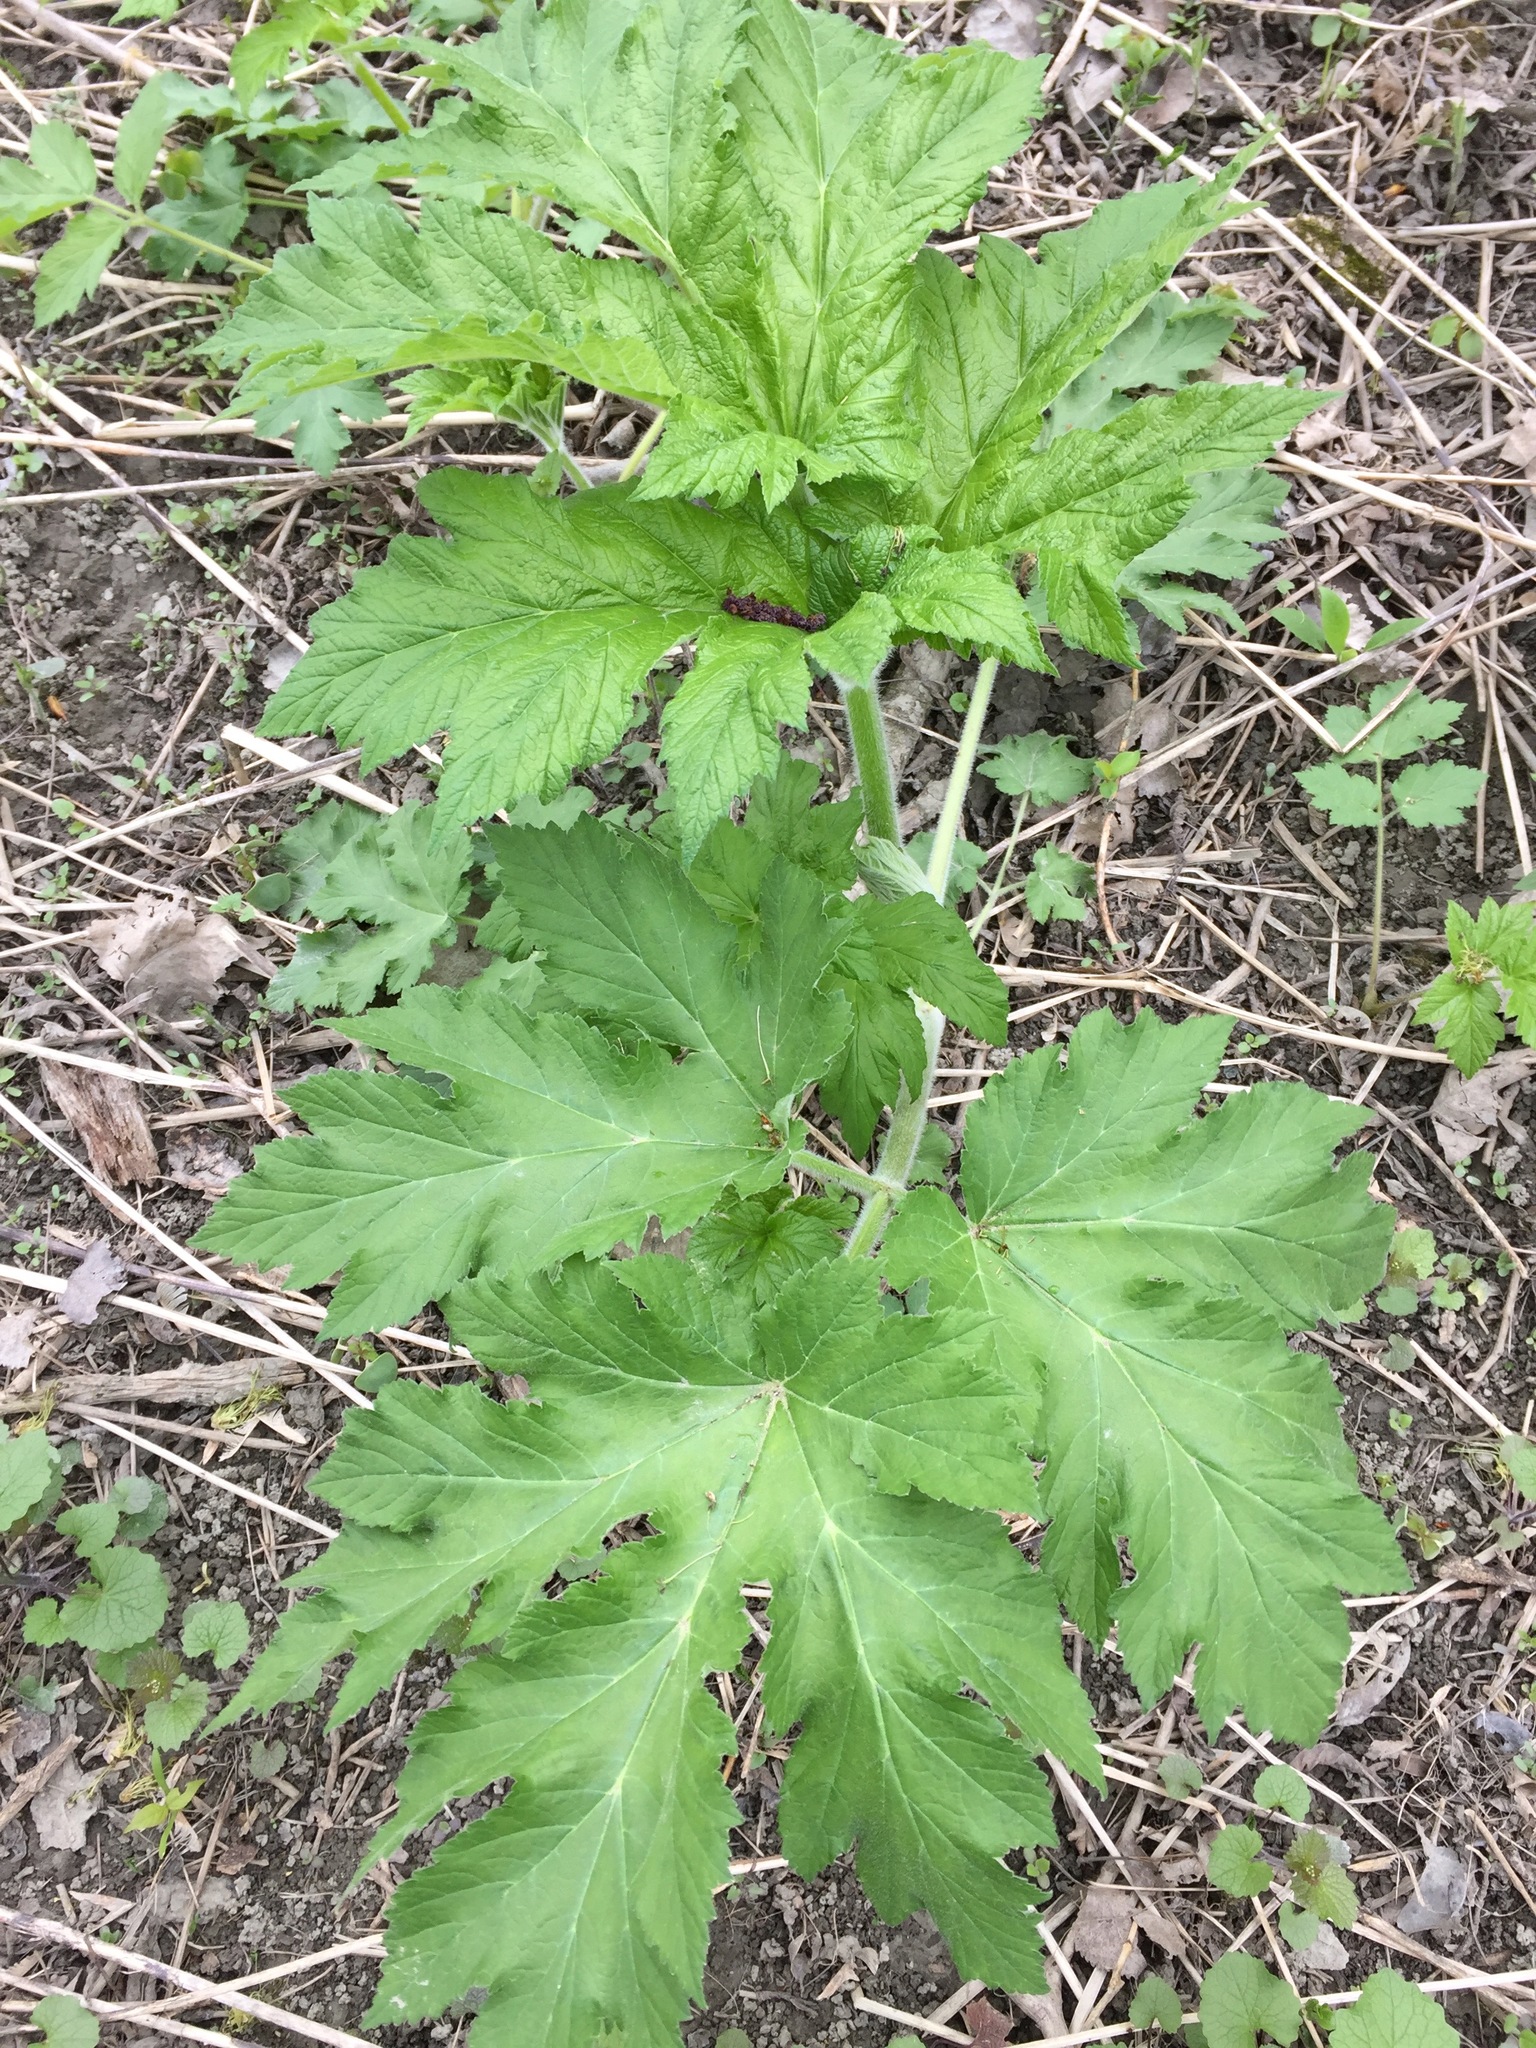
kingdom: Plantae
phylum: Tracheophyta
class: Magnoliopsida
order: Apiales
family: Apiaceae
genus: Heracleum
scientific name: Heracleum maximum
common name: American cow parsnip
